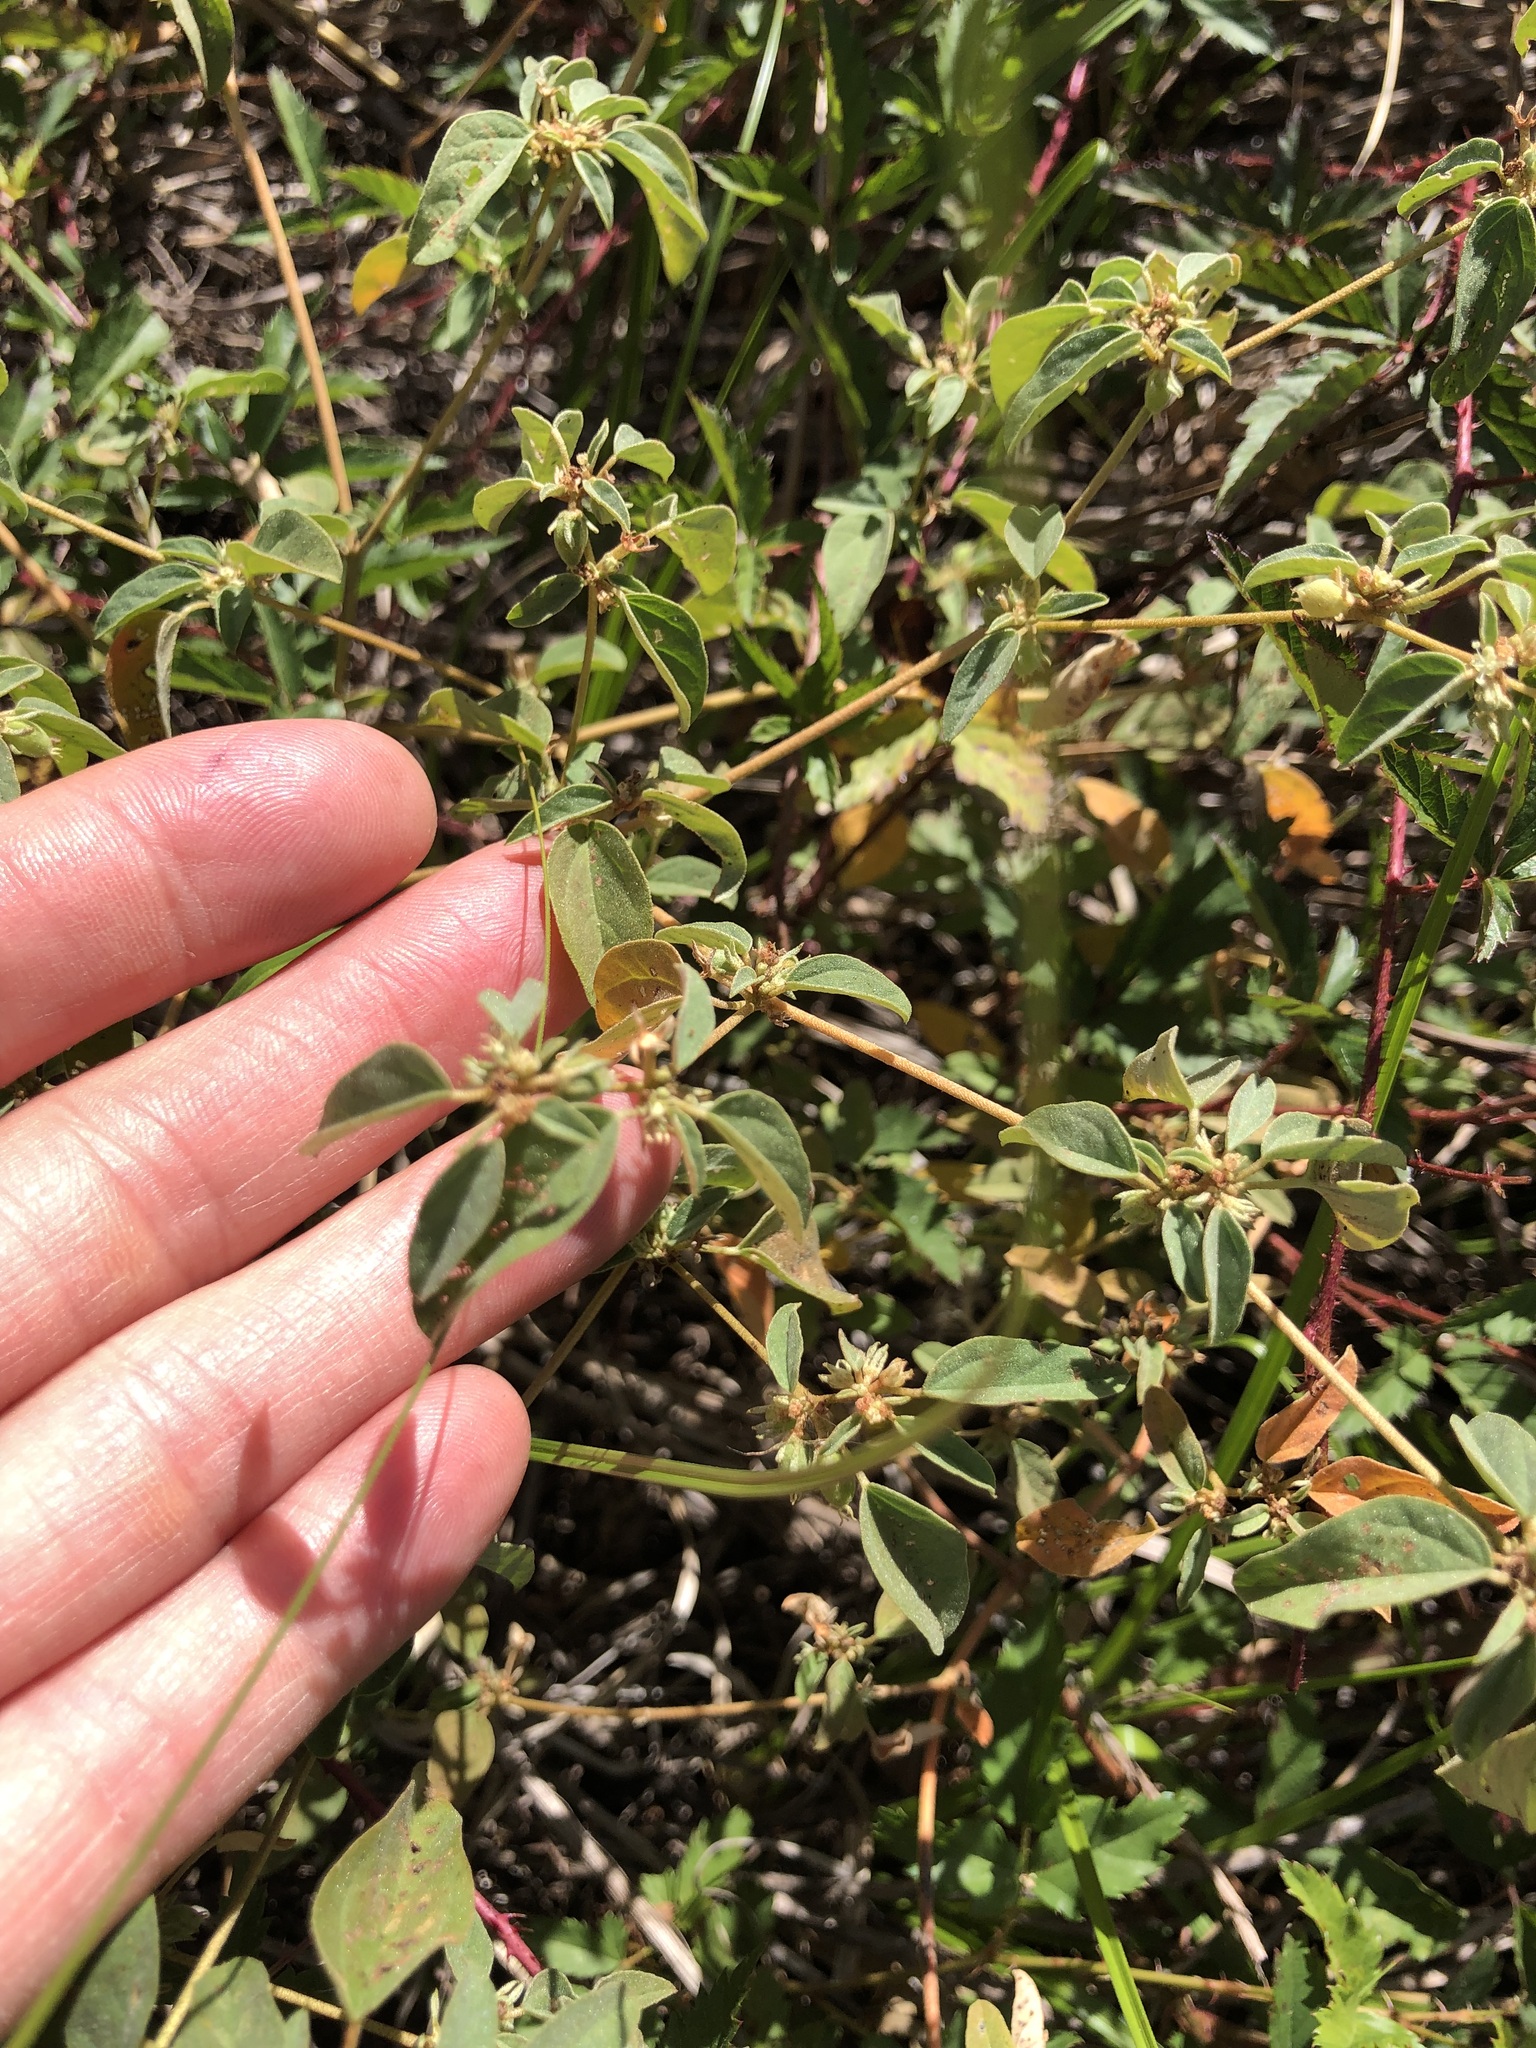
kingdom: Plantae
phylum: Tracheophyta
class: Magnoliopsida
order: Malpighiales
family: Euphorbiaceae
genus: Croton
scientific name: Croton monanthogynus
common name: One-seed croton
